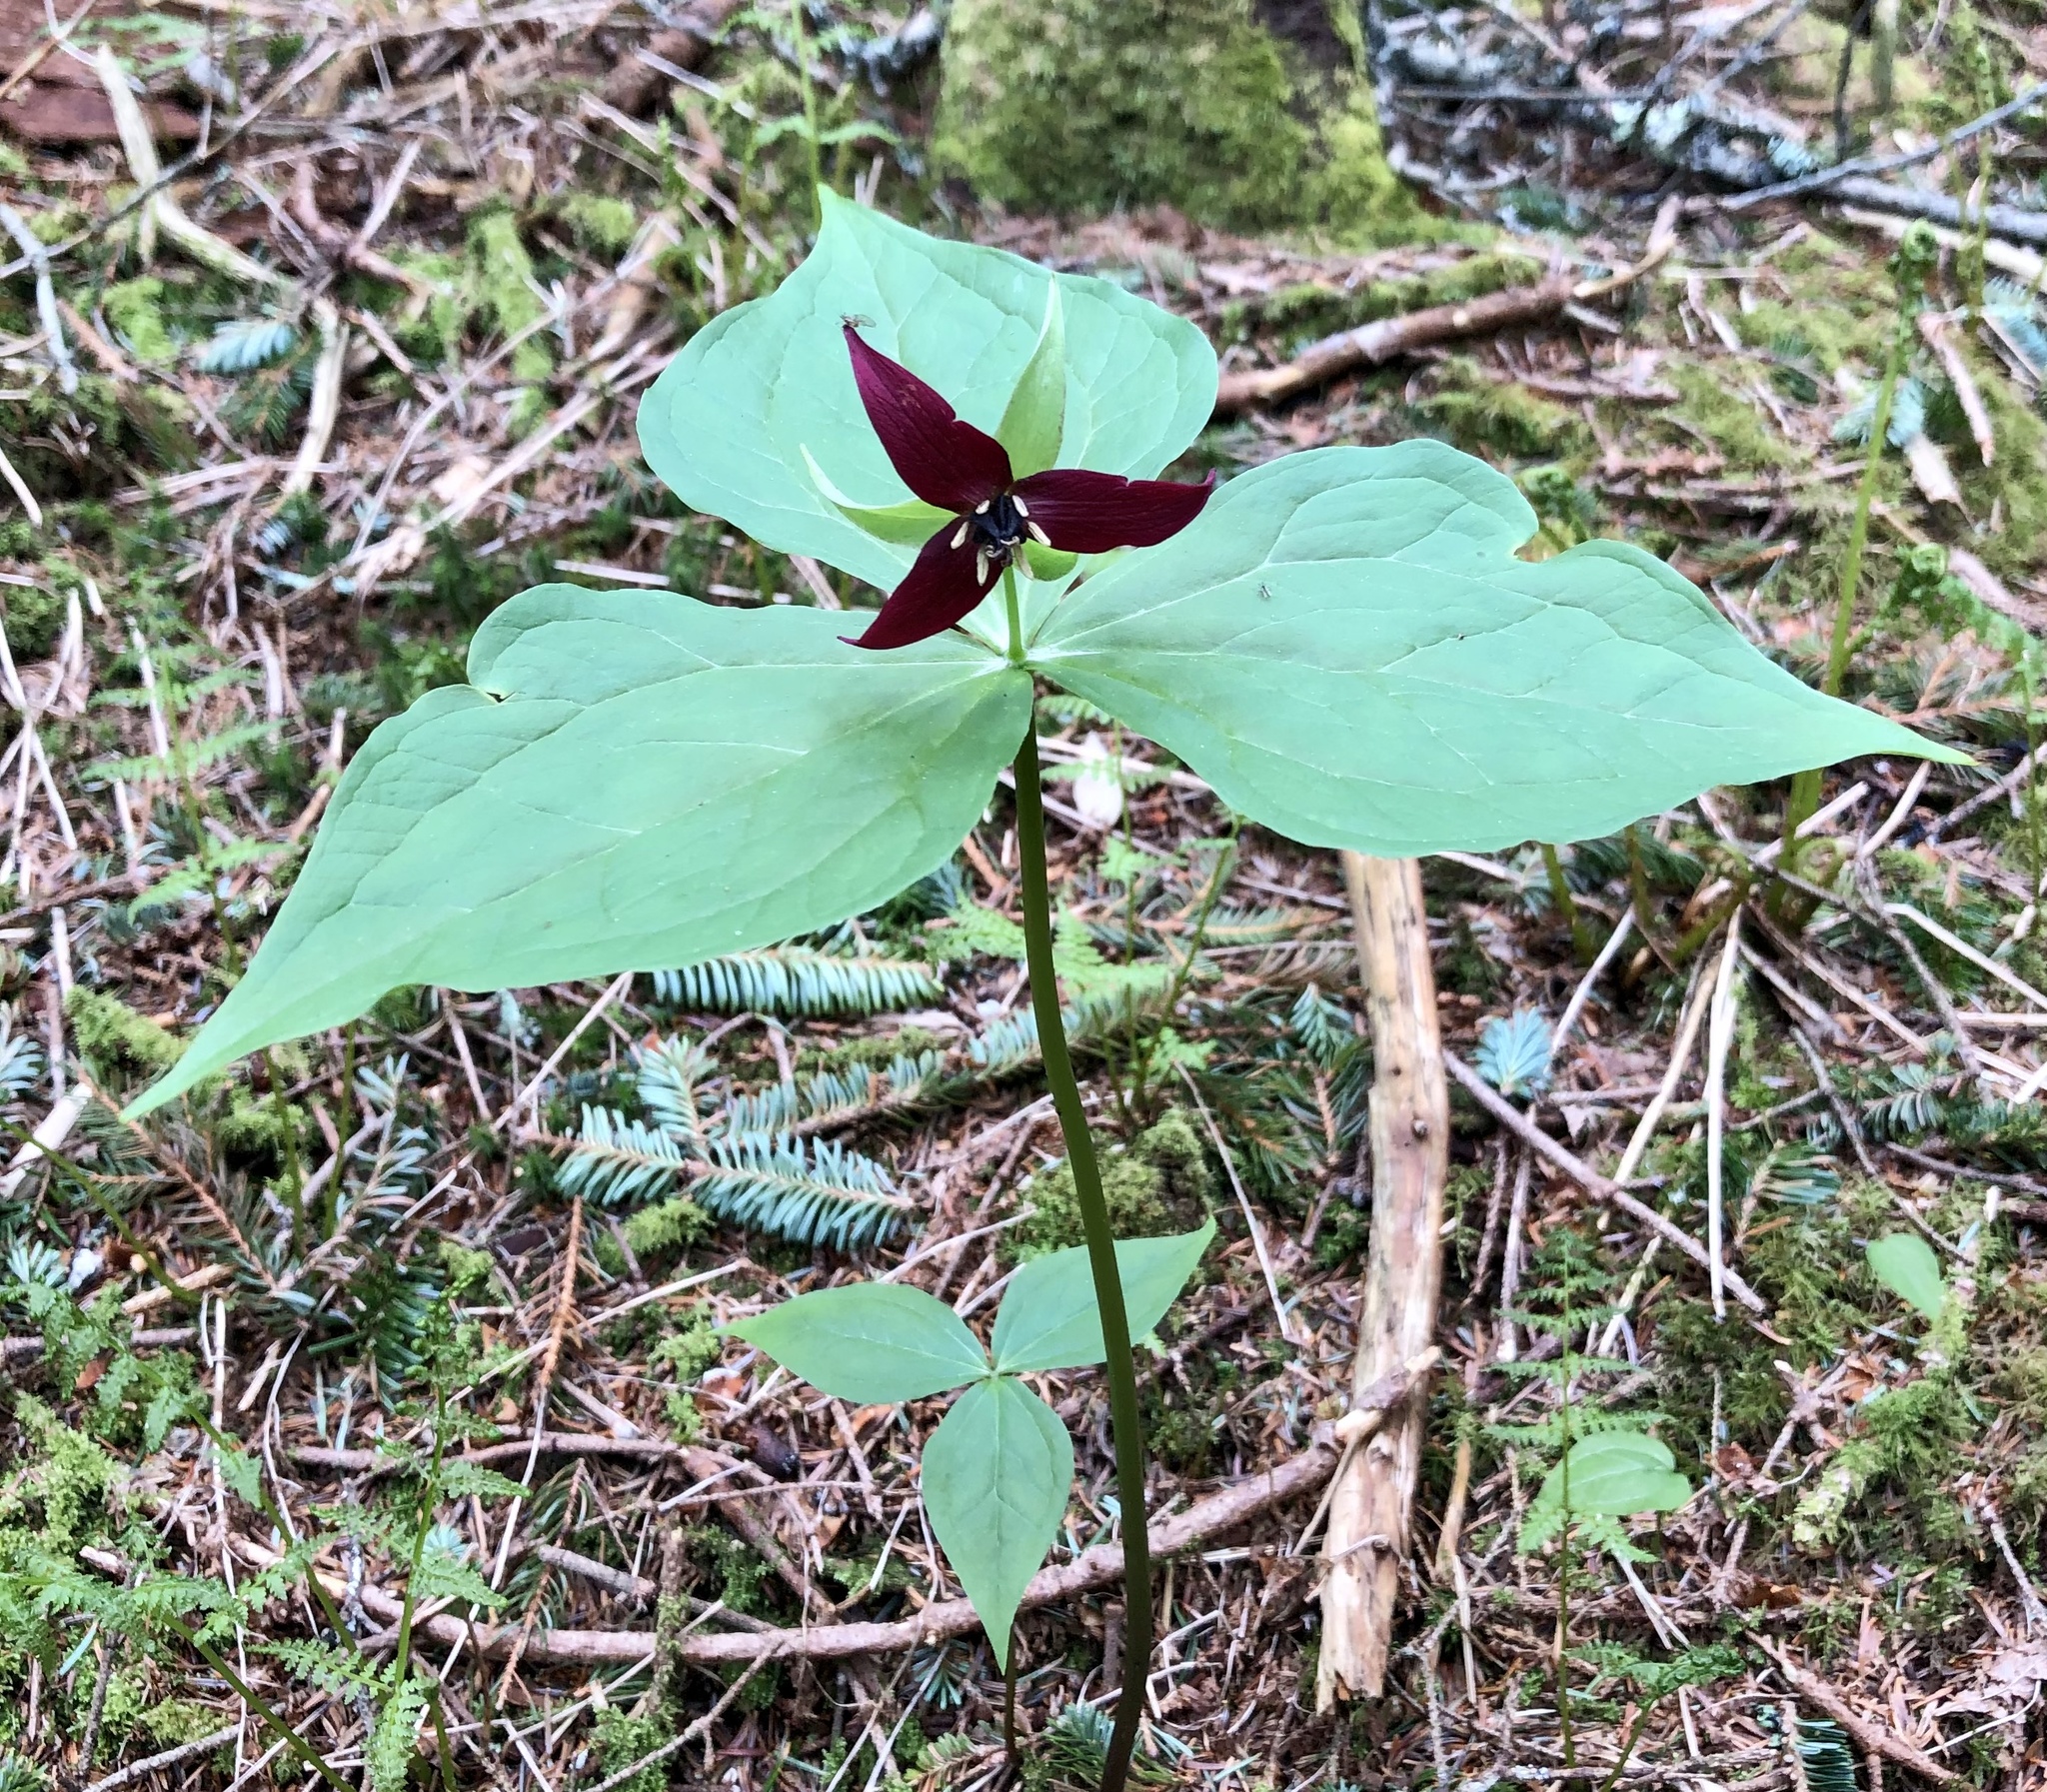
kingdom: Plantae
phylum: Tracheophyta
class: Liliopsida
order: Liliales
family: Melanthiaceae
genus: Trillium
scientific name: Trillium erectum
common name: Purple trillium
